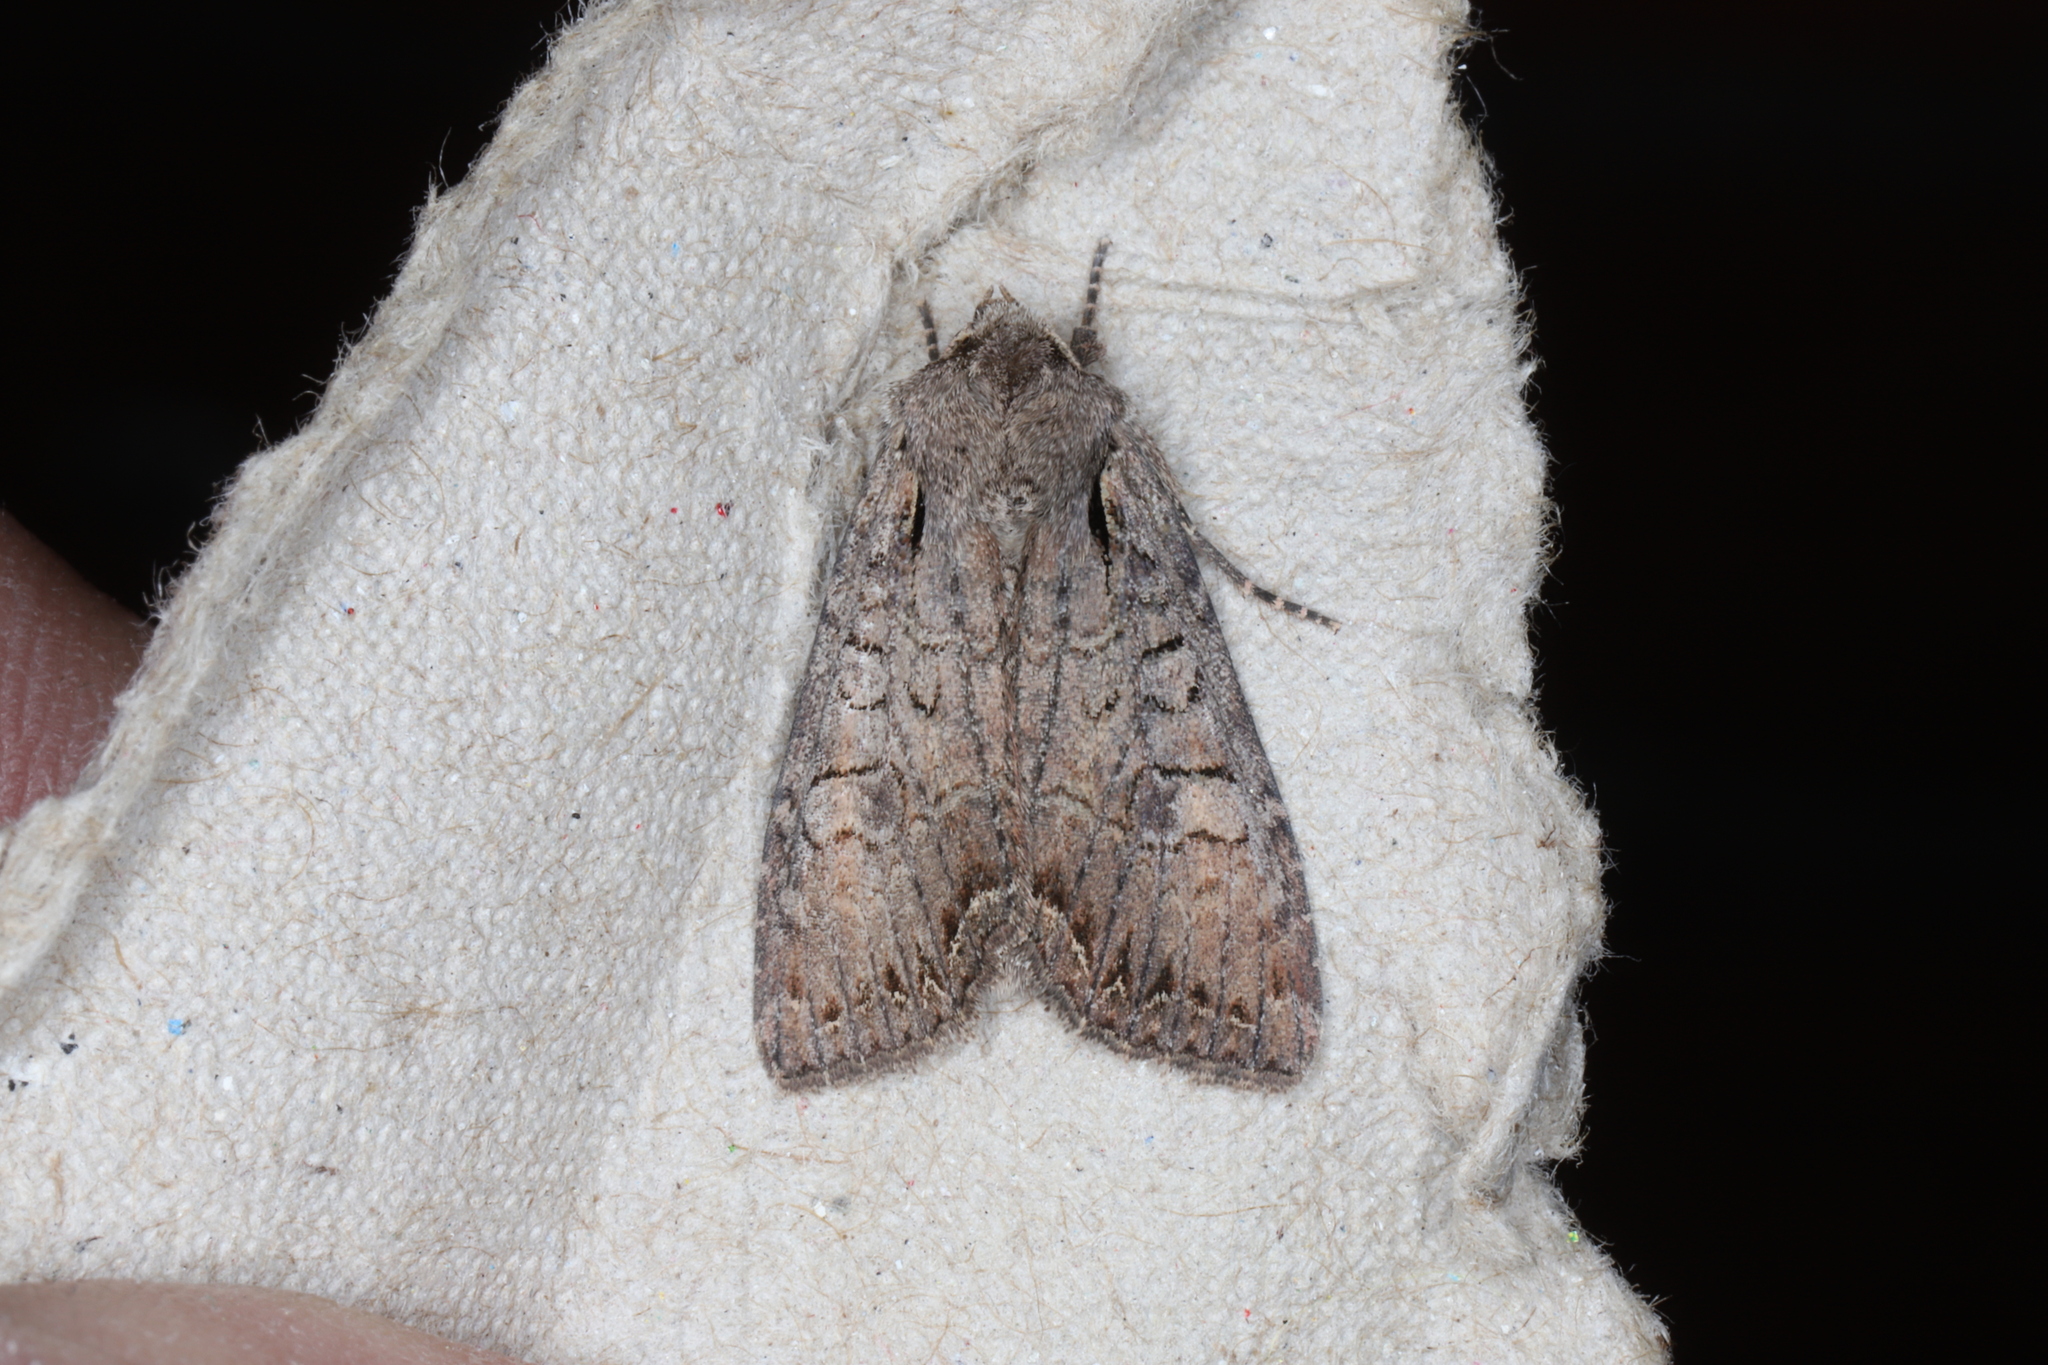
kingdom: Animalia
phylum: Arthropoda
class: Insecta
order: Lepidoptera
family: Noctuidae
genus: Lacanobia
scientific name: Lacanobia radix
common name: Garden arches moth
